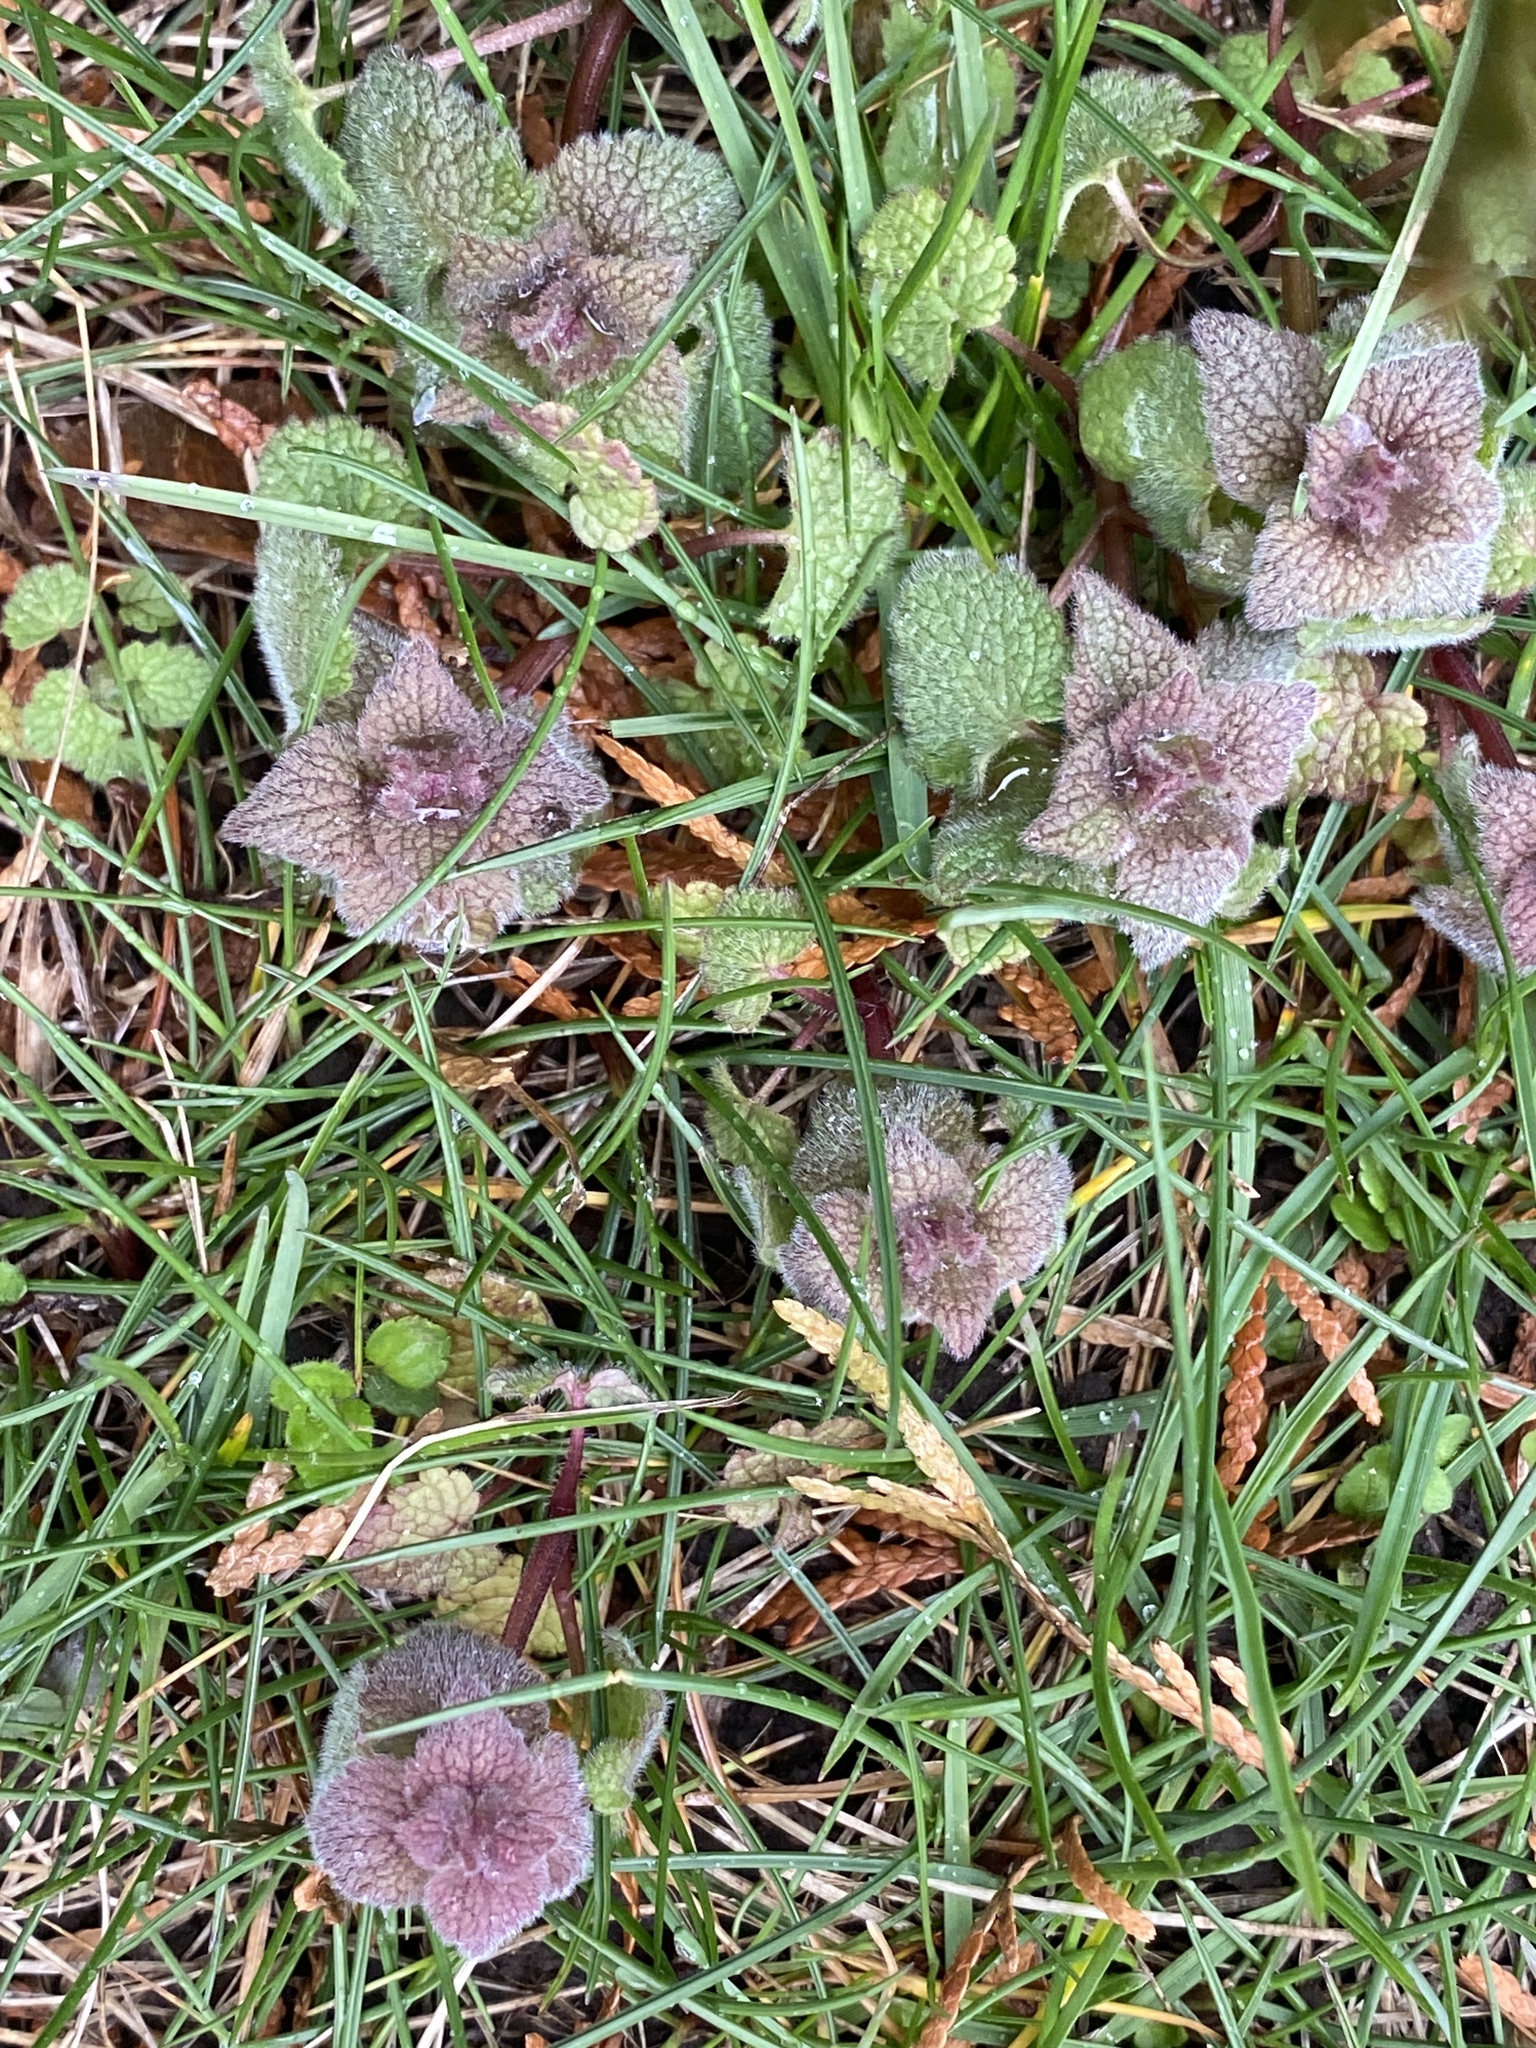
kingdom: Plantae
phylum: Tracheophyta
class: Magnoliopsida
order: Lamiales
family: Lamiaceae
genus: Lamium
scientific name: Lamium purpureum
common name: Red dead-nettle
